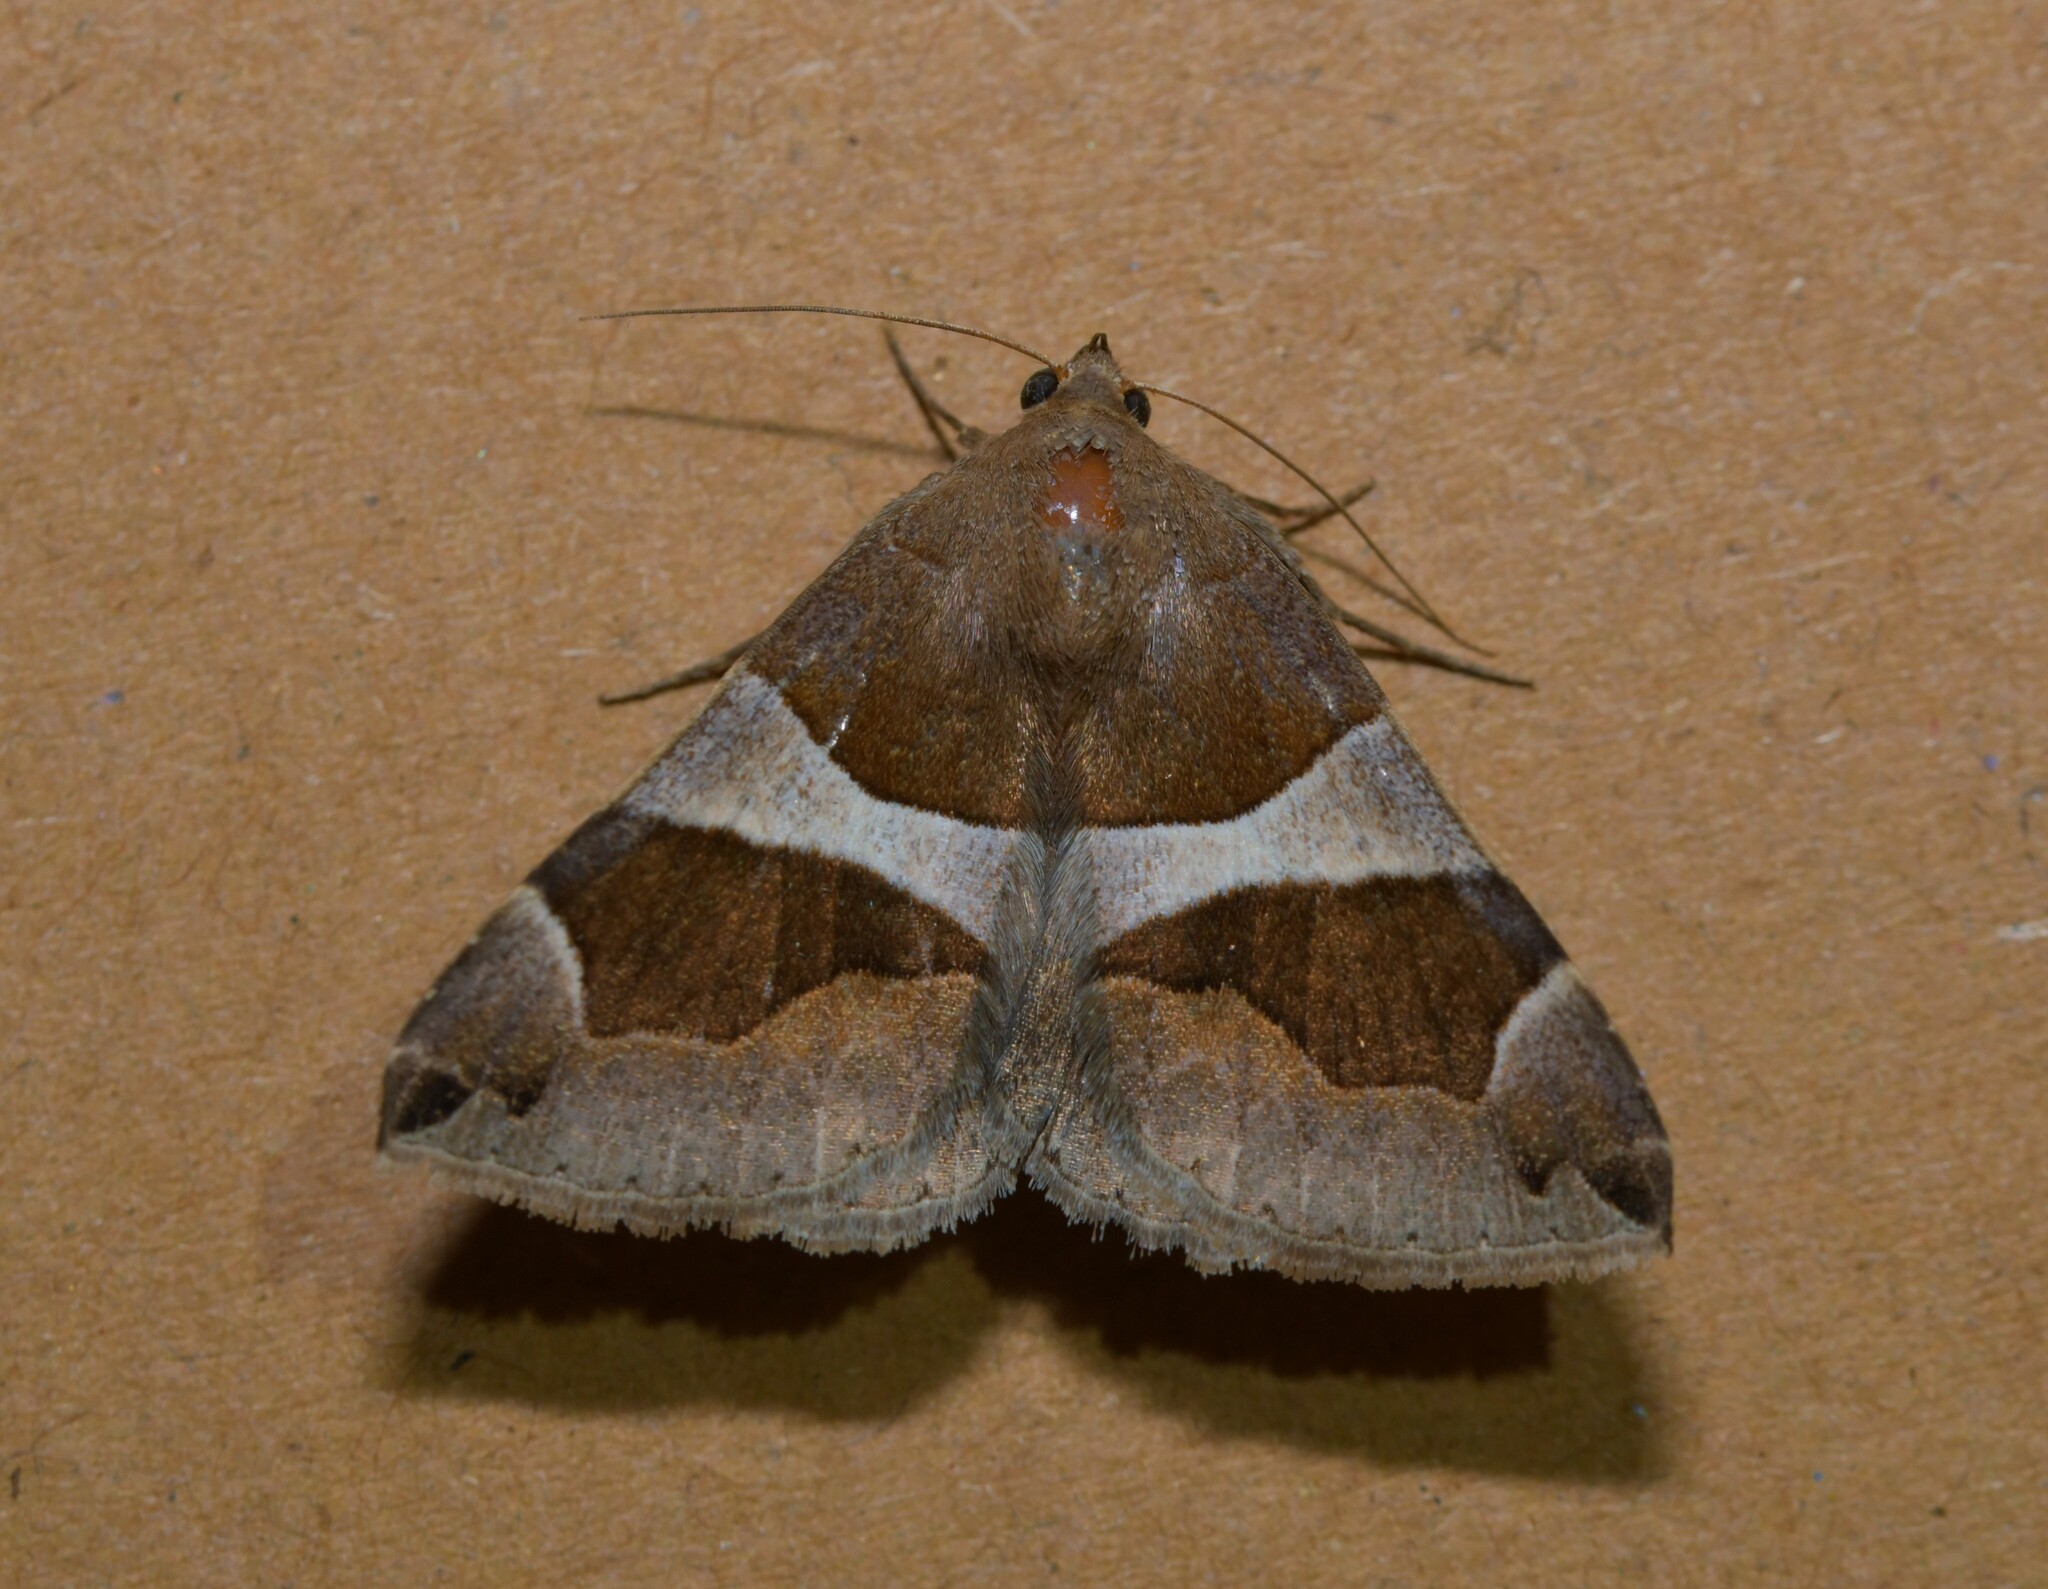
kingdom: Animalia
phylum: Arthropoda
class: Insecta
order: Lepidoptera
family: Erebidae
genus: Dysgonia
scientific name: Dysgonia algira
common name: Passenger
